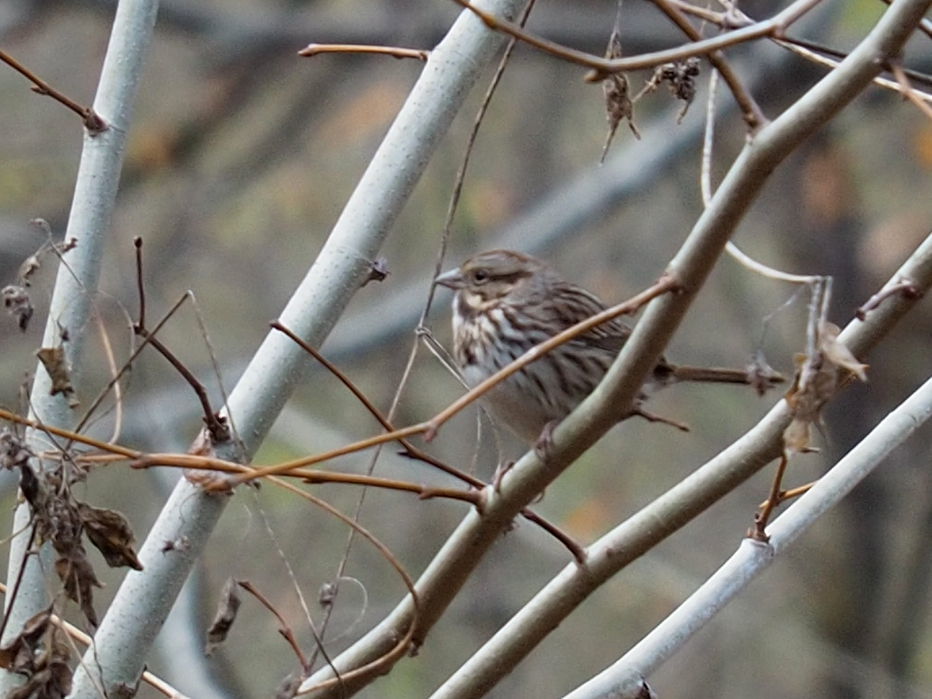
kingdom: Animalia
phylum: Chordata
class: Aves
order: Passeriformes
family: Passerellidae
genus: Melospiza
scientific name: Melospiza melodia
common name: Song sparrow
